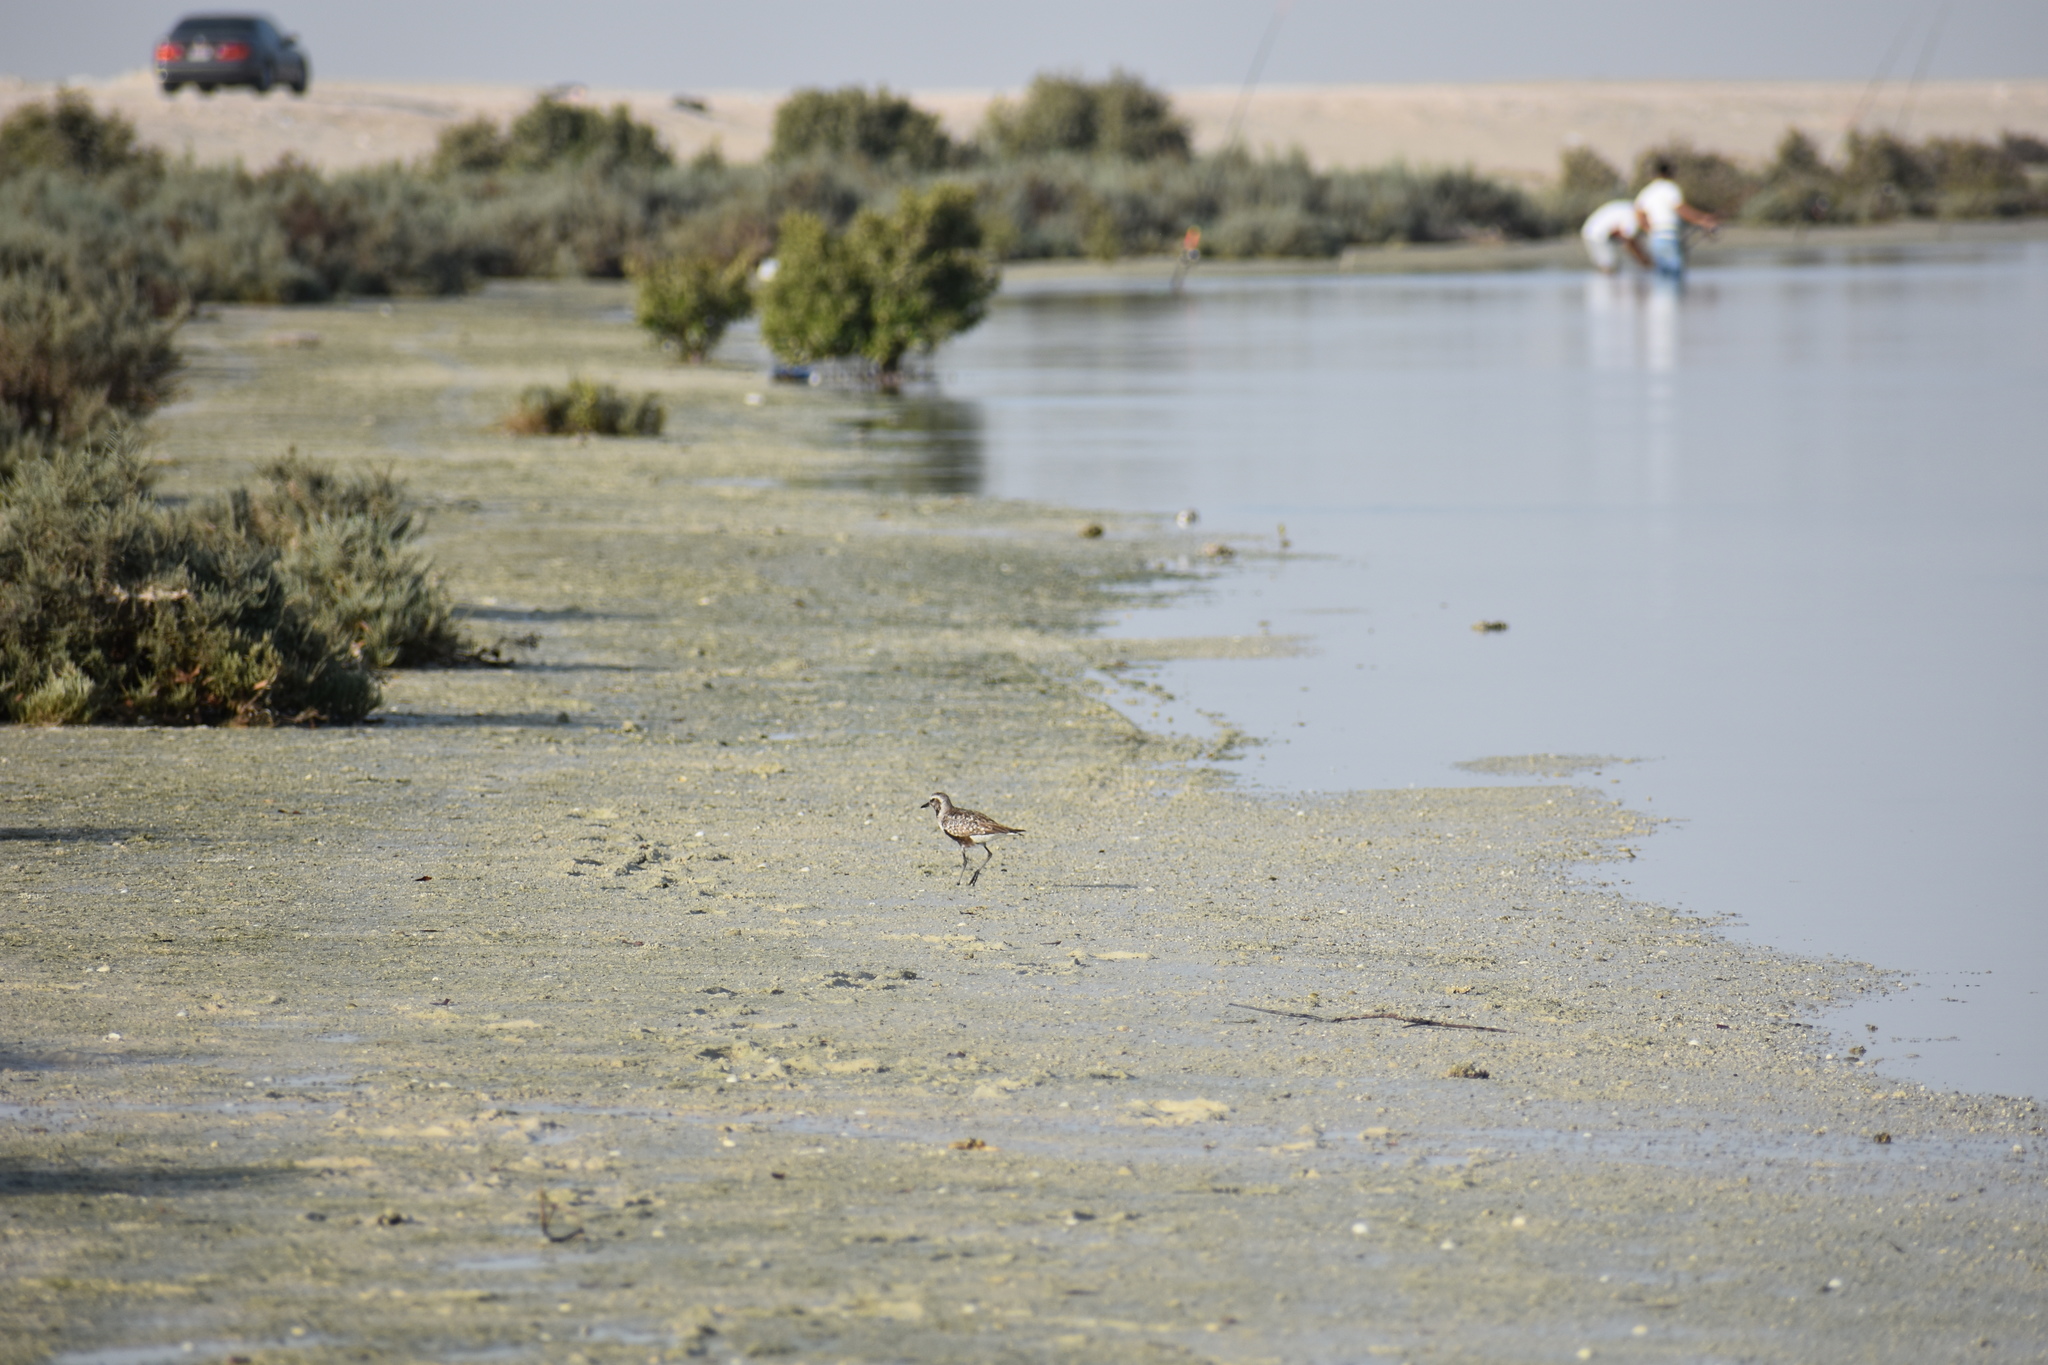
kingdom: Animalia
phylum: Chordata
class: Aves
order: Charadriiformes
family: Charadriidae
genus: Pluvialis
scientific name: Pluvialis fulva
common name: Pacific golden plover
